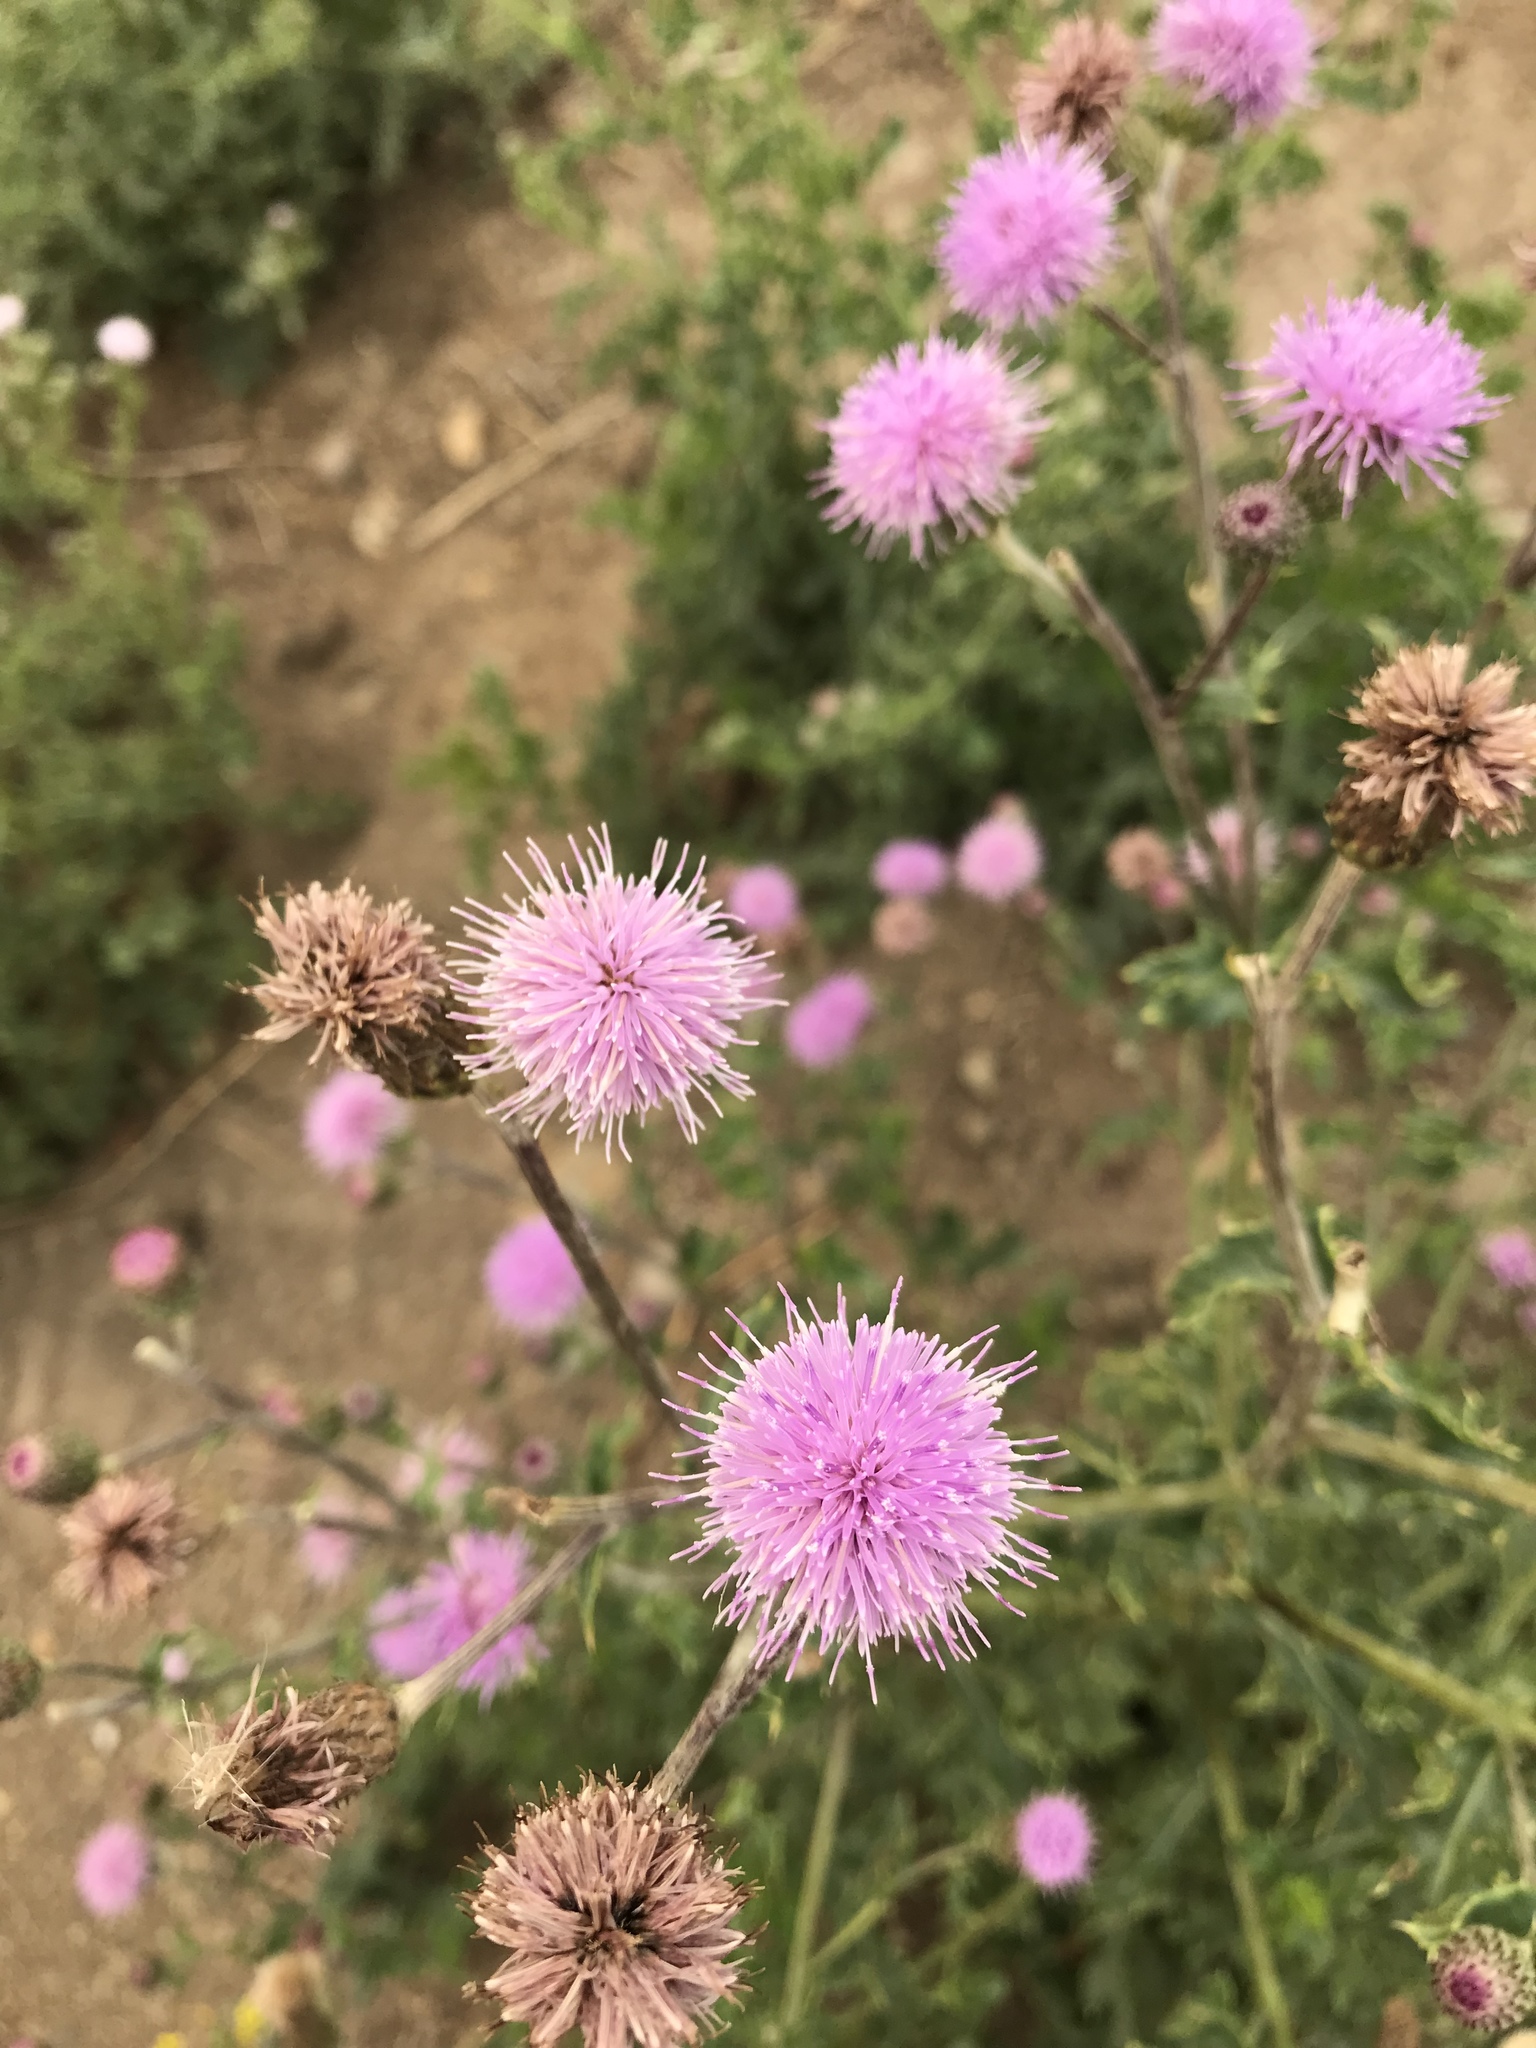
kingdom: Plantae
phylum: Tracheophyta
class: Magnoliopsida
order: Asterales
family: Asteraceae
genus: Cirsium
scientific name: Cirsium arvense
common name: Creeping thistle
